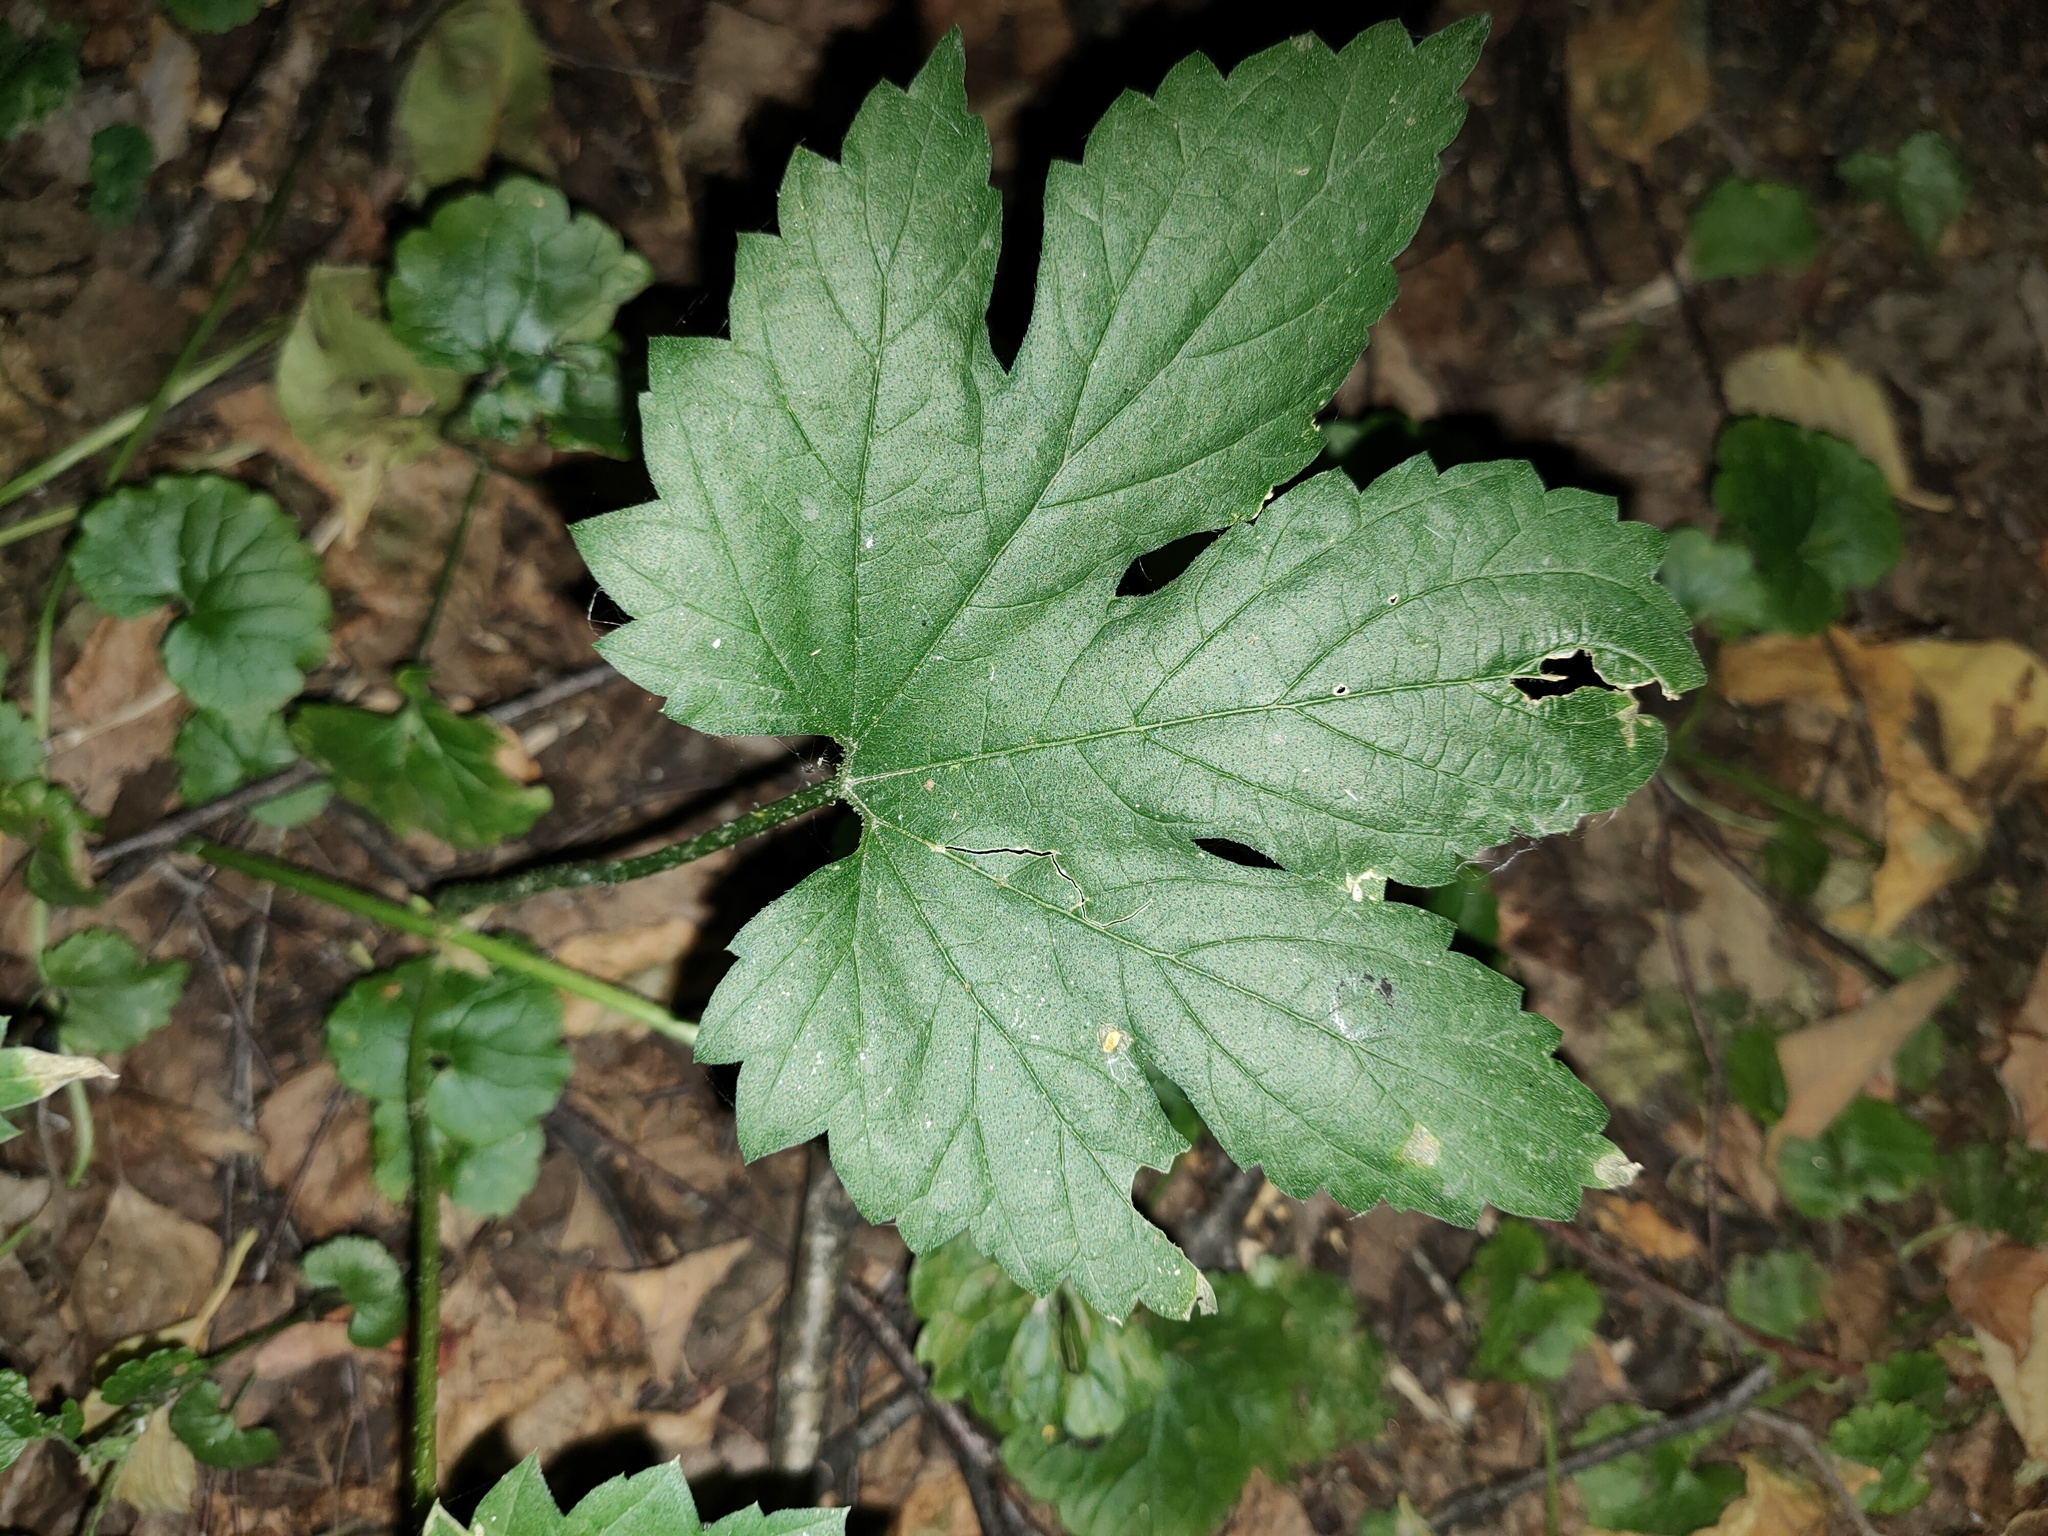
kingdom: Plantae
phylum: Tracheophyta
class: Magnoliopsida
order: Rosales
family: Cannabaceae
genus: Humulus
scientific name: Humulus lupulus
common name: Hop
